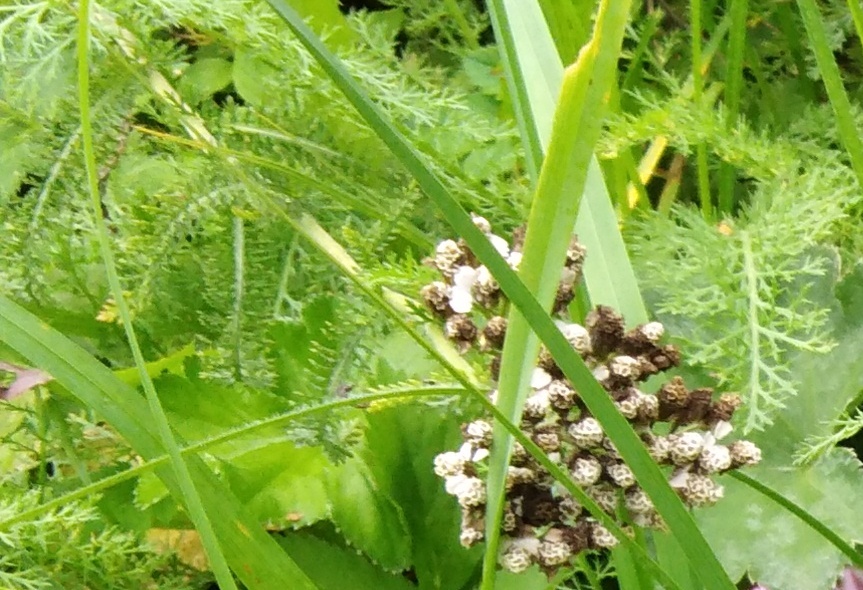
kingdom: Plantae
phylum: Tracheophyta
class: Magnoliopsida
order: Asterales
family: Asteraceae
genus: Achillea
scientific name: Achillea millefolium
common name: Yarrow
